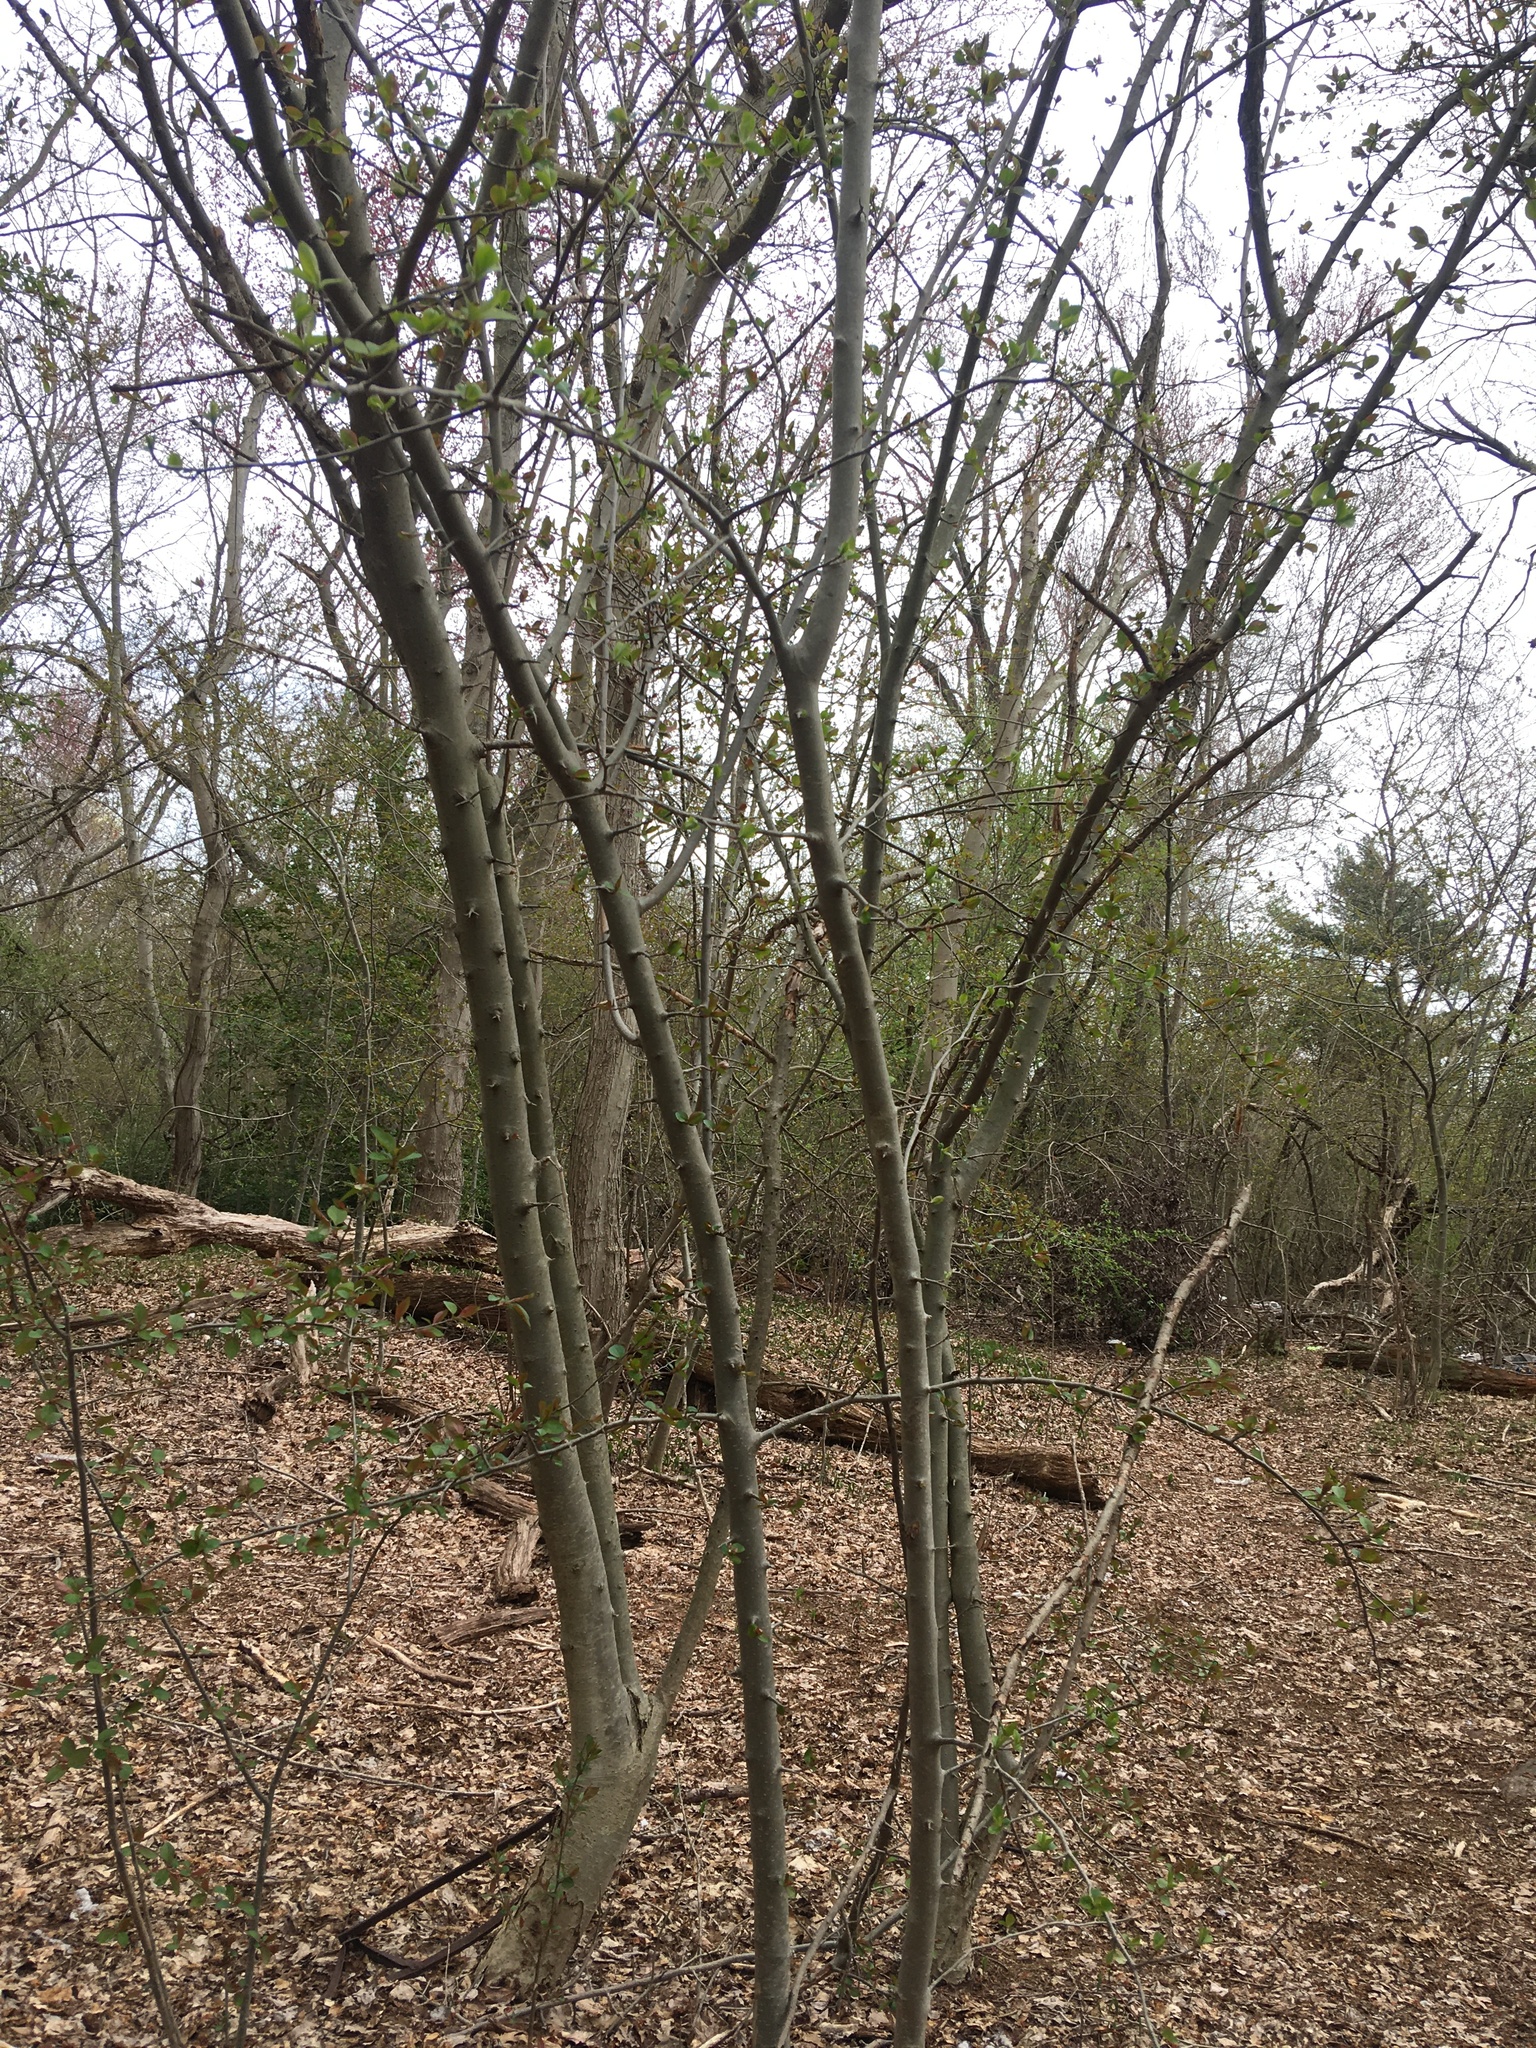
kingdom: Plantae
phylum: Tracheophyta
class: Magnoliopsida
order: Rosales
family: Rosaceae
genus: Malus
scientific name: Malus hupehensis
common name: Chinese crab apple
